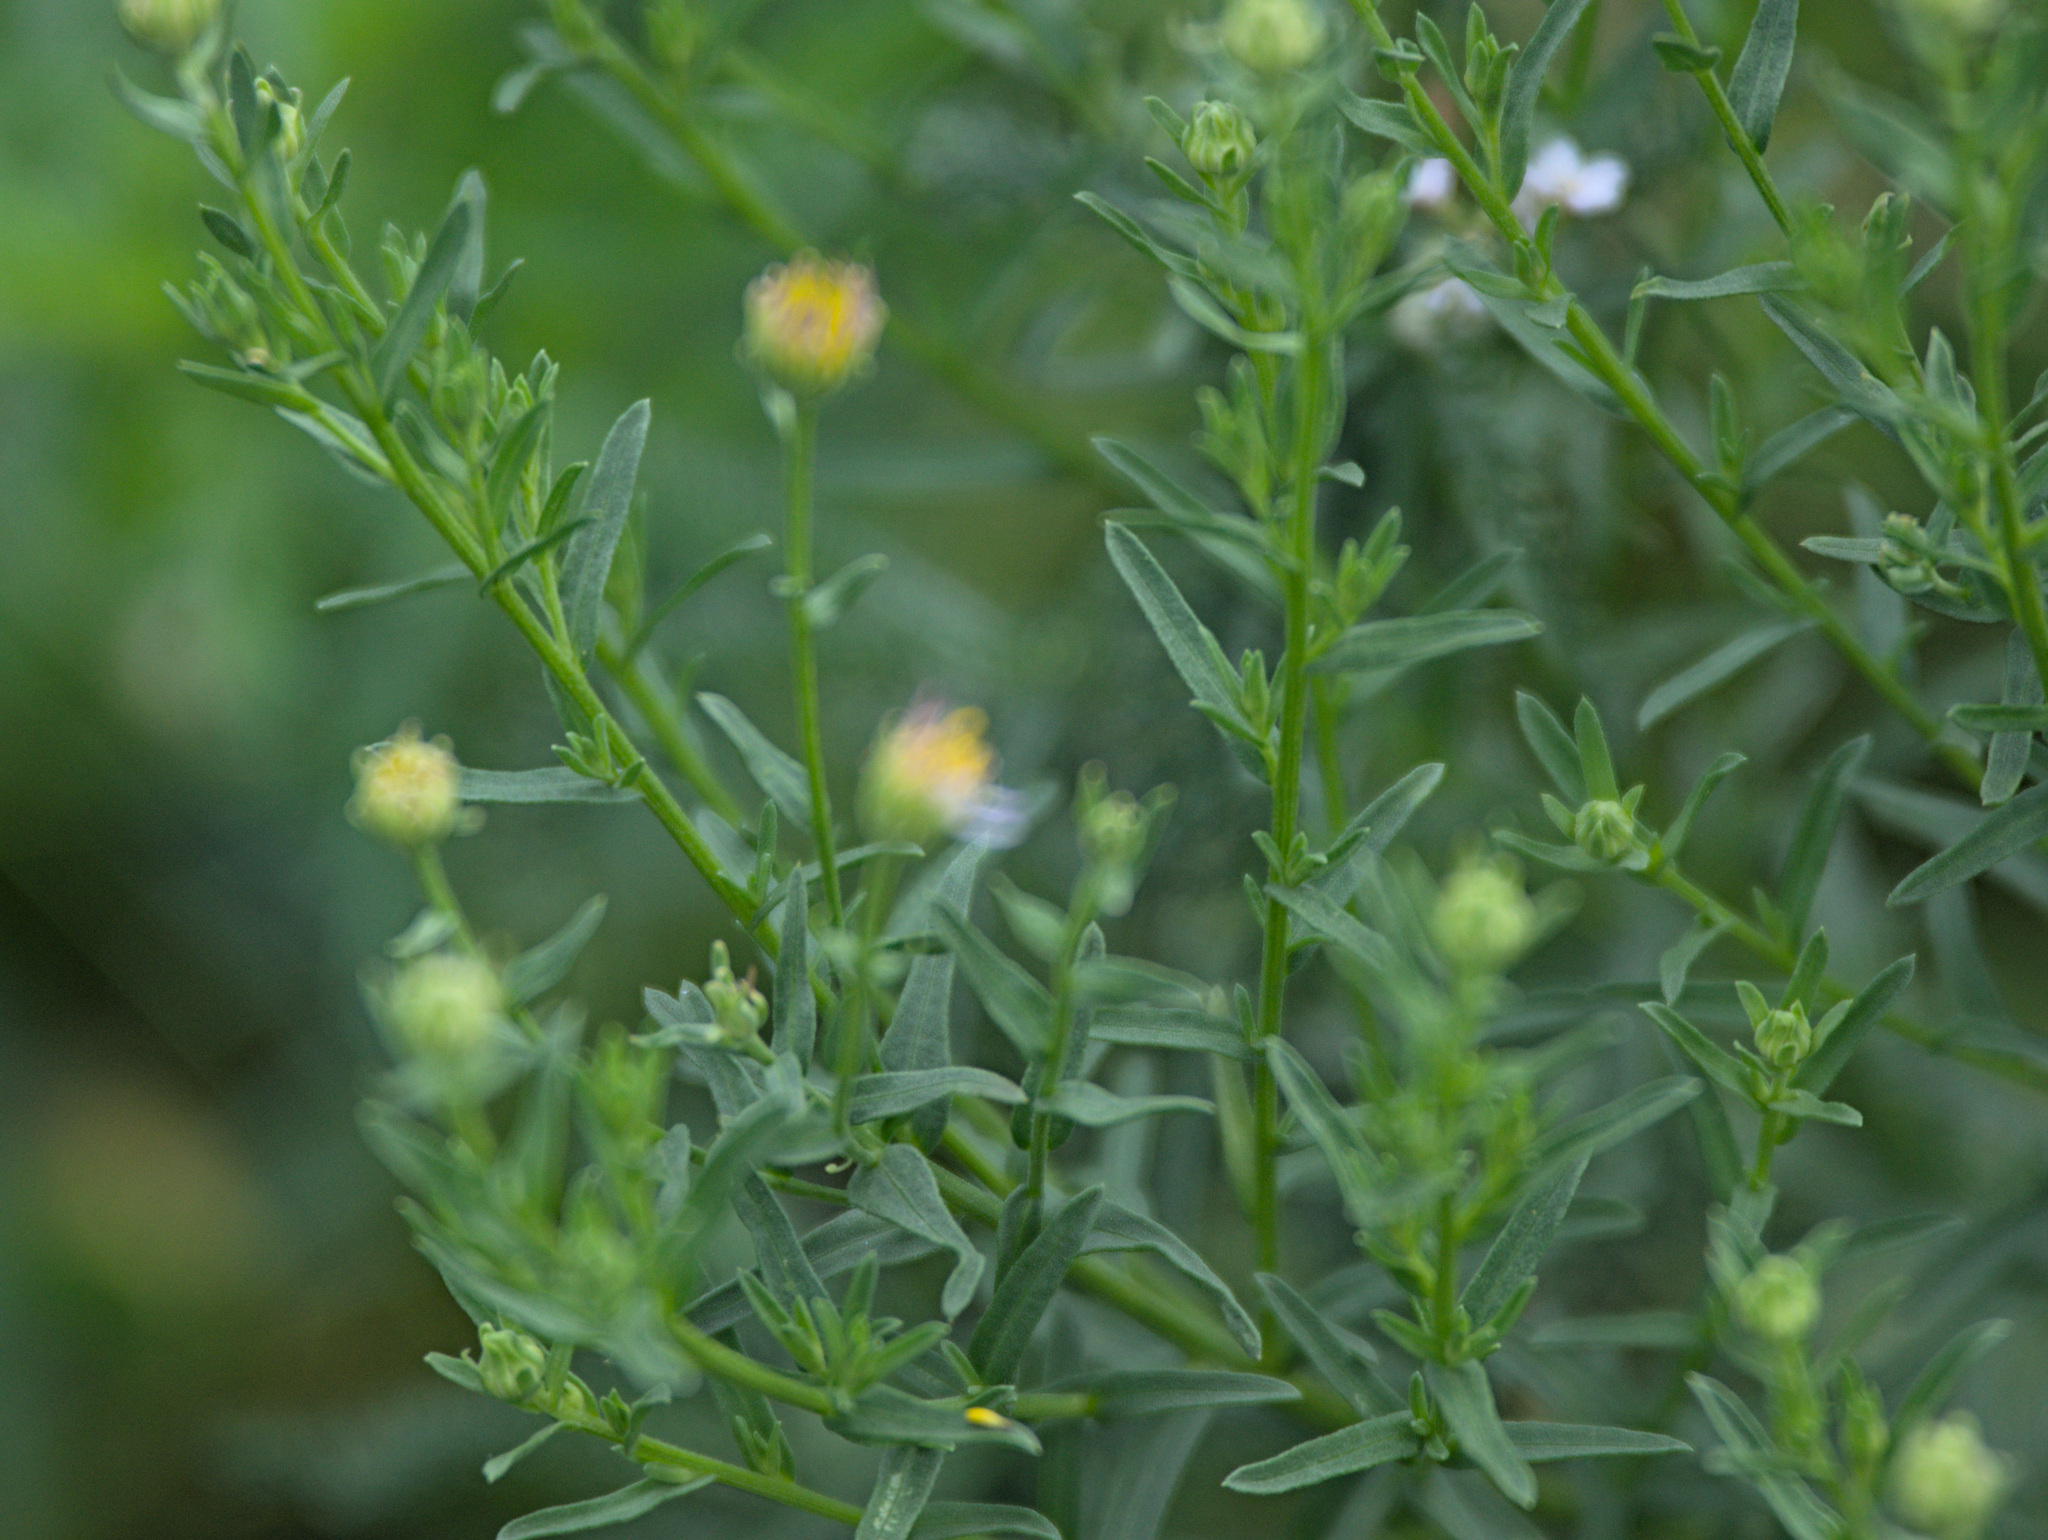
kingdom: Plantae
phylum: Tracheophyta
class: Magnoliopsida
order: Asterales
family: Asteraceae
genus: Heteropappus
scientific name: Heteropappus altaicus
